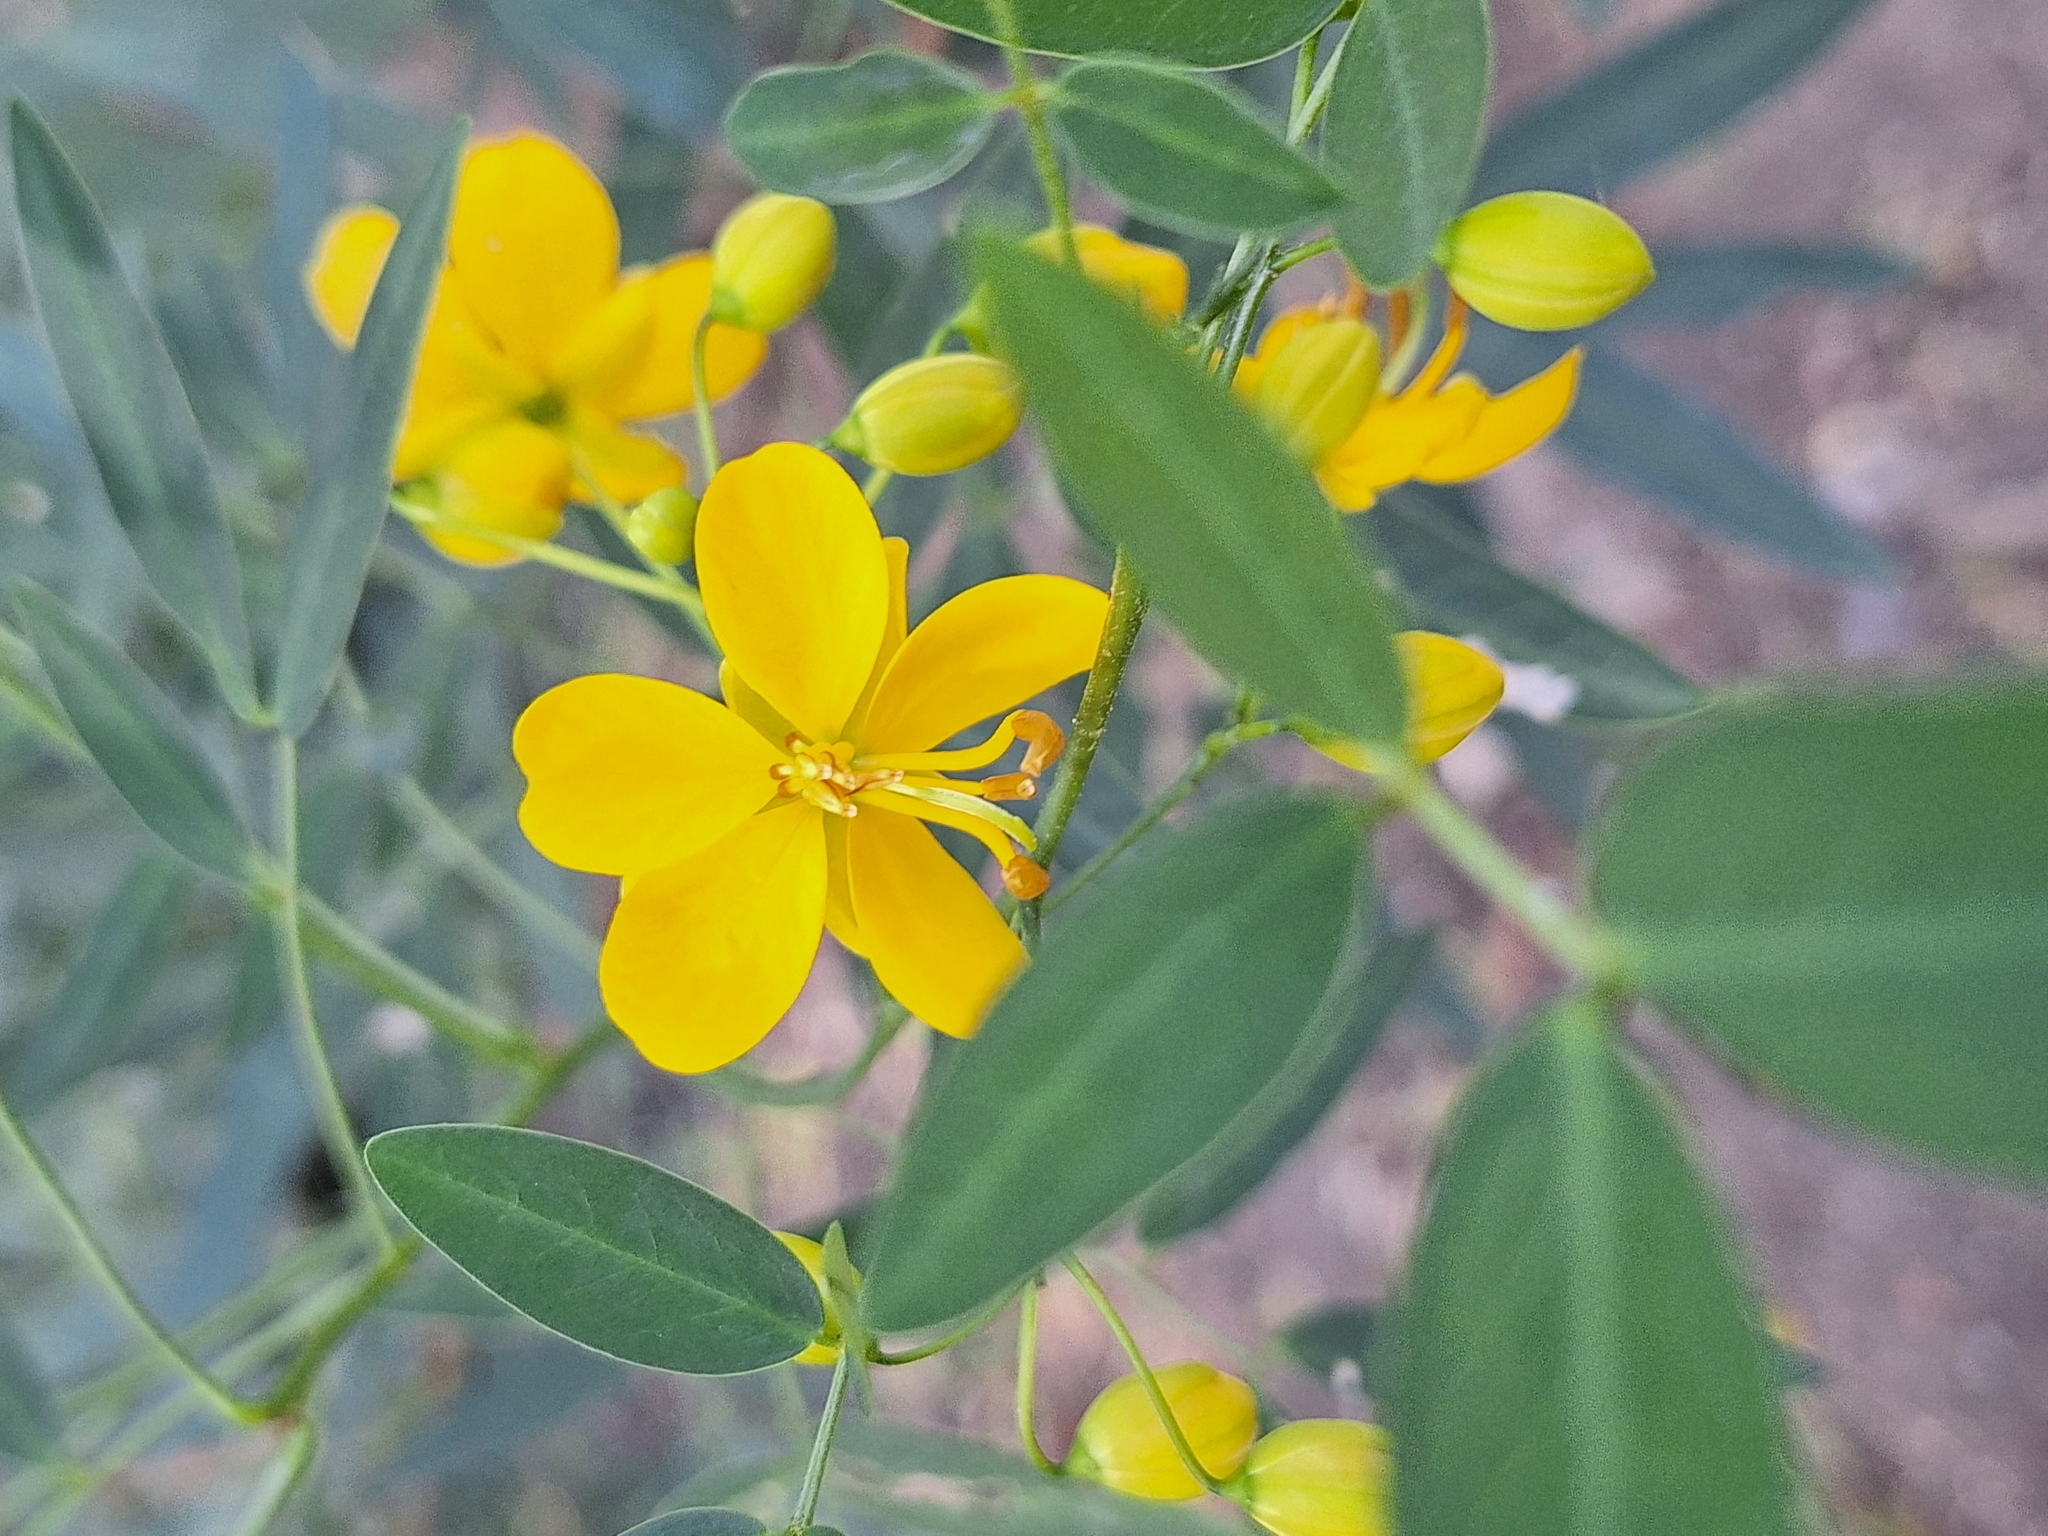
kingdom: Plantae
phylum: Tracheophyta
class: Magnoliopsida
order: Fabales
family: Fabaceae
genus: Senna
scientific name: Senna corymbosa
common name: Argentine senna
